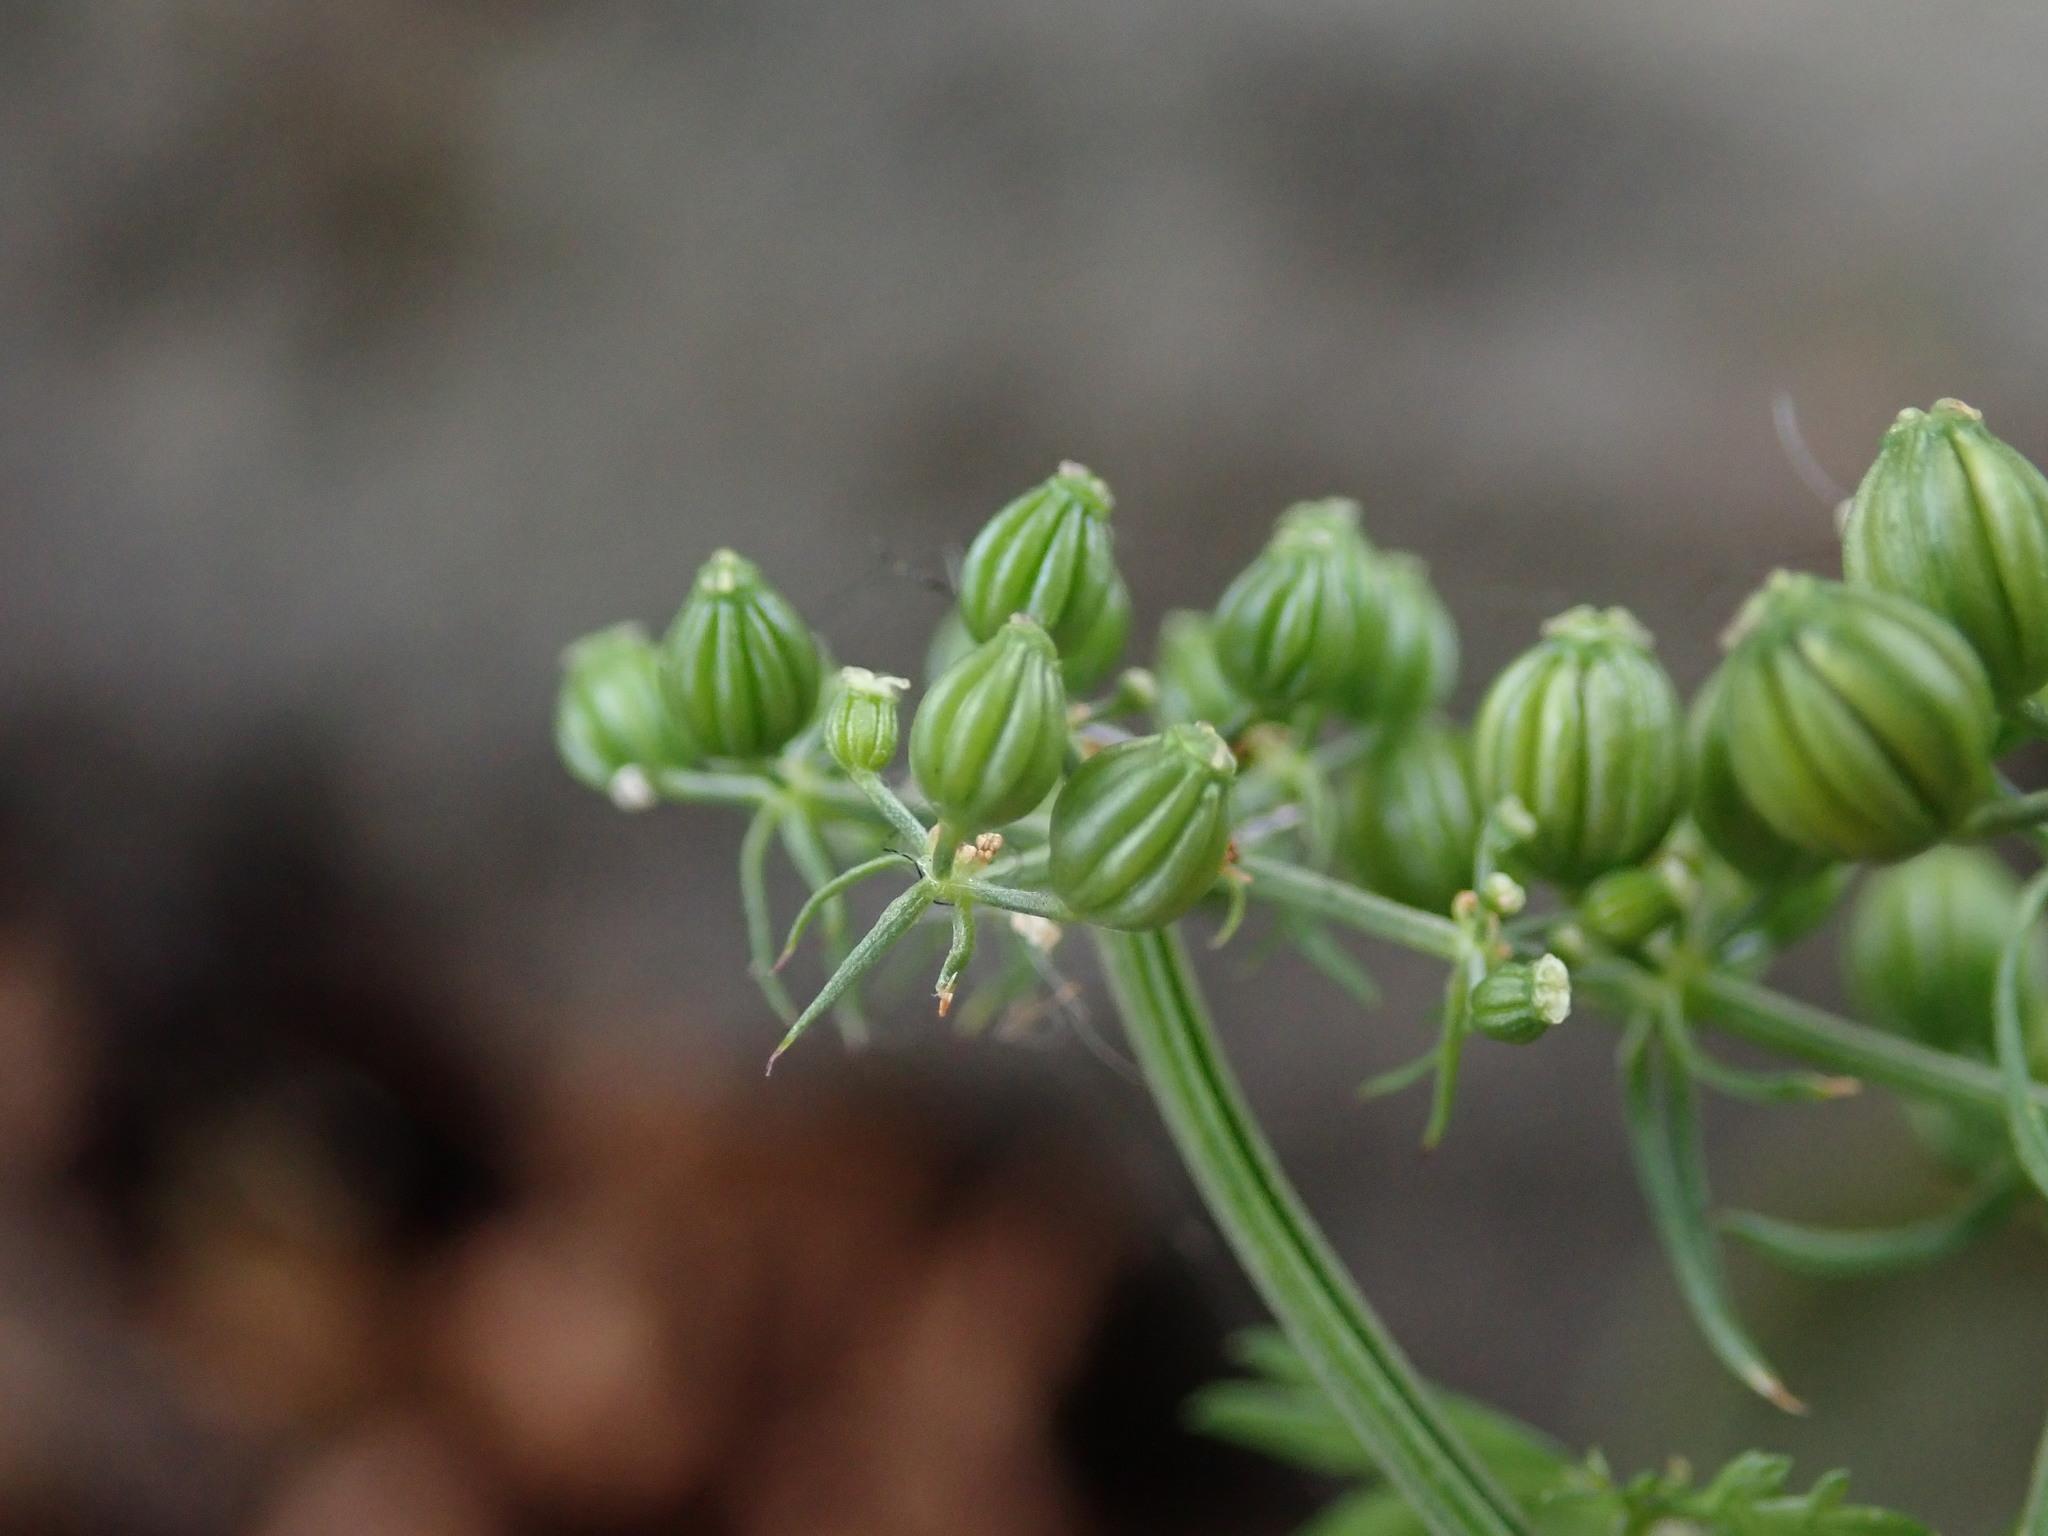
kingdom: Plantae
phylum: Tracheophyta
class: Magnoliopsida
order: Apiales
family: Apiaceae
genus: Aethusa
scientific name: Aethusa cynapium
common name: Fool's parsley
